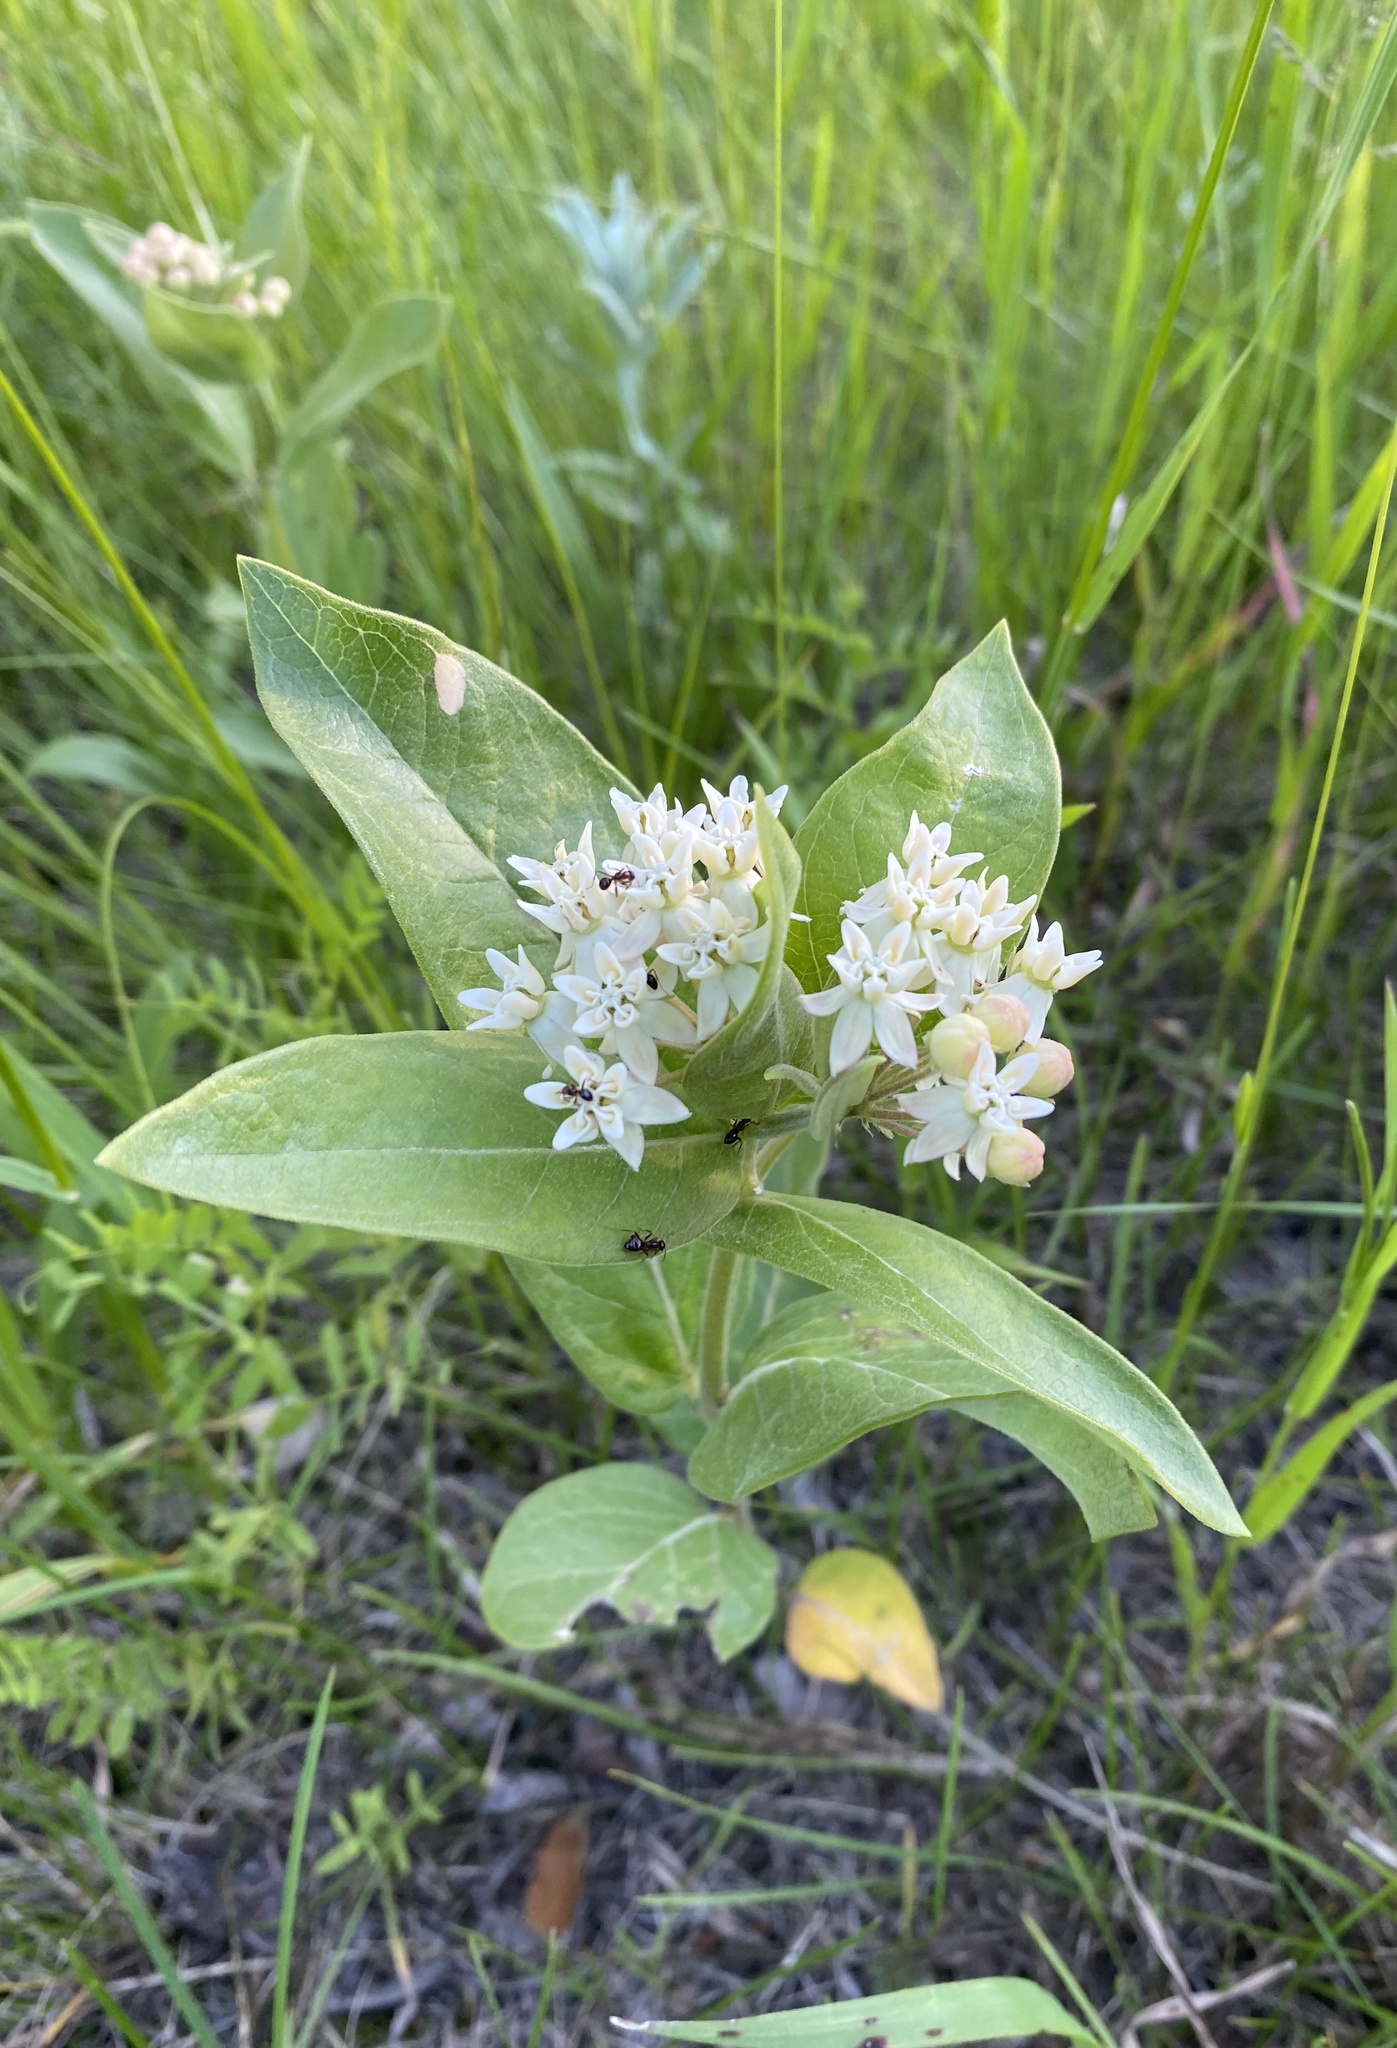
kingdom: Plantae
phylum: Tracheophyta
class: Magnoliopsida
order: Gentianales
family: Apocynaceae
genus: Asclepias
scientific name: Asclepias ovalifolia
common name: Dwarf milkweed
